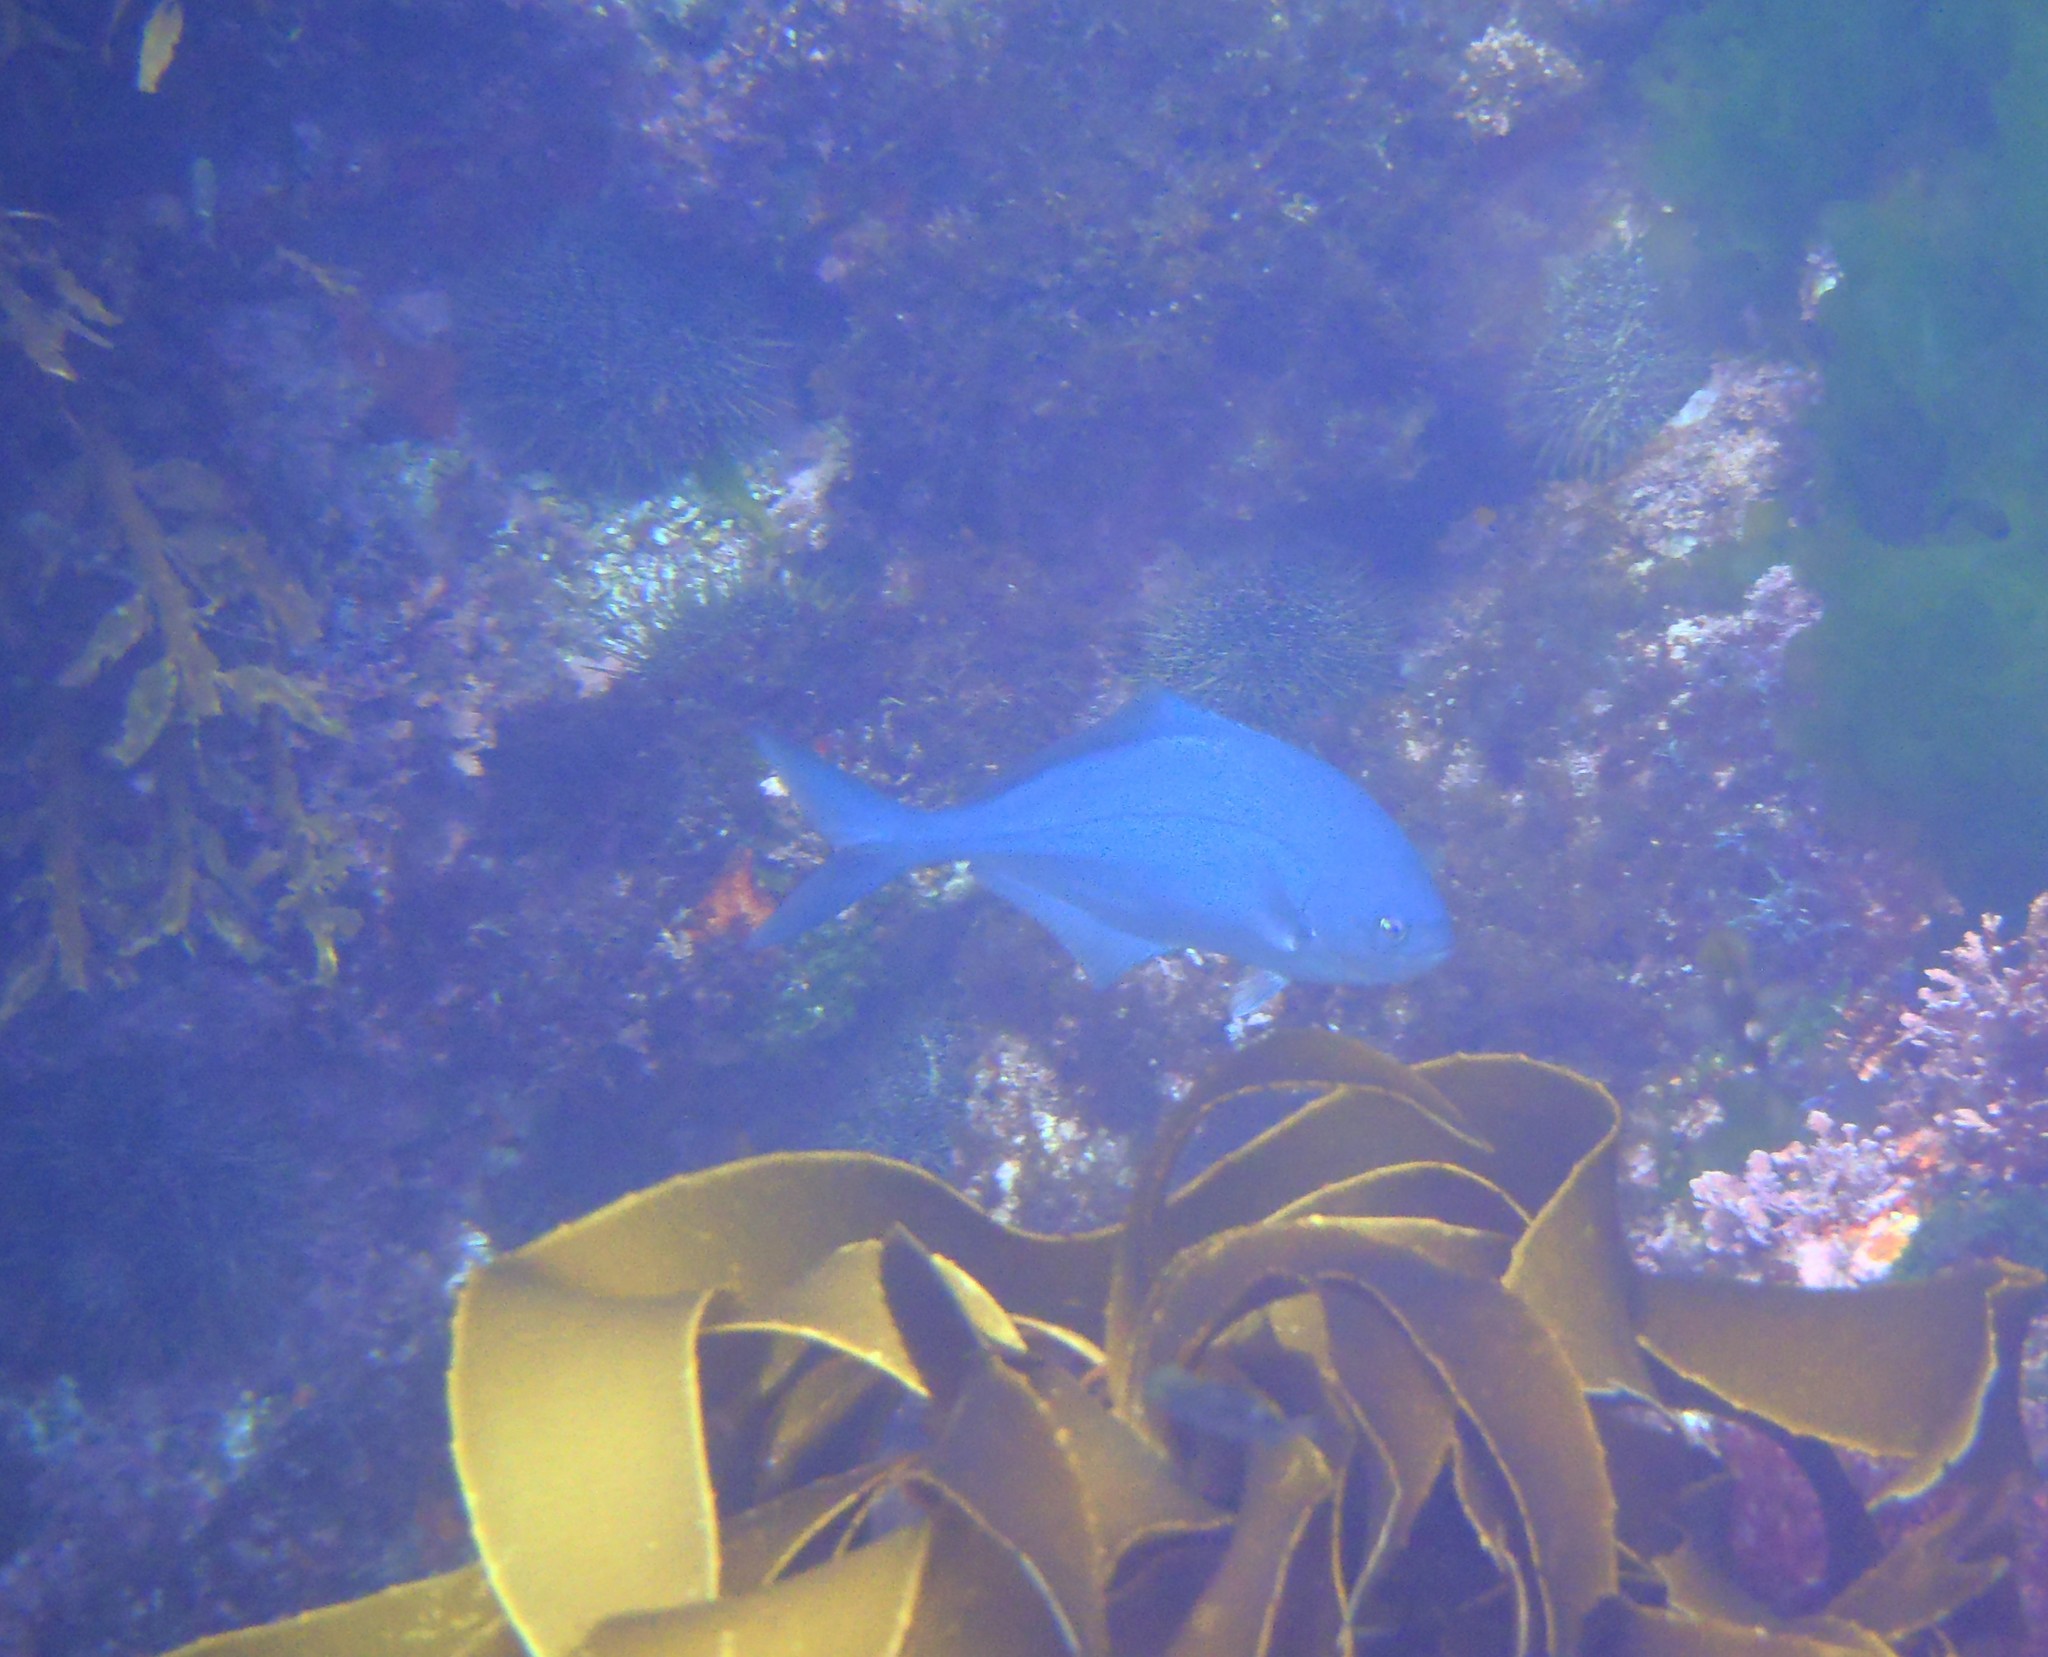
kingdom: Animalia
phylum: Chordata
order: Perciformes
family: Kyphosidae
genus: Scorpis
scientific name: Scorpis violacea
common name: Blue maomao
